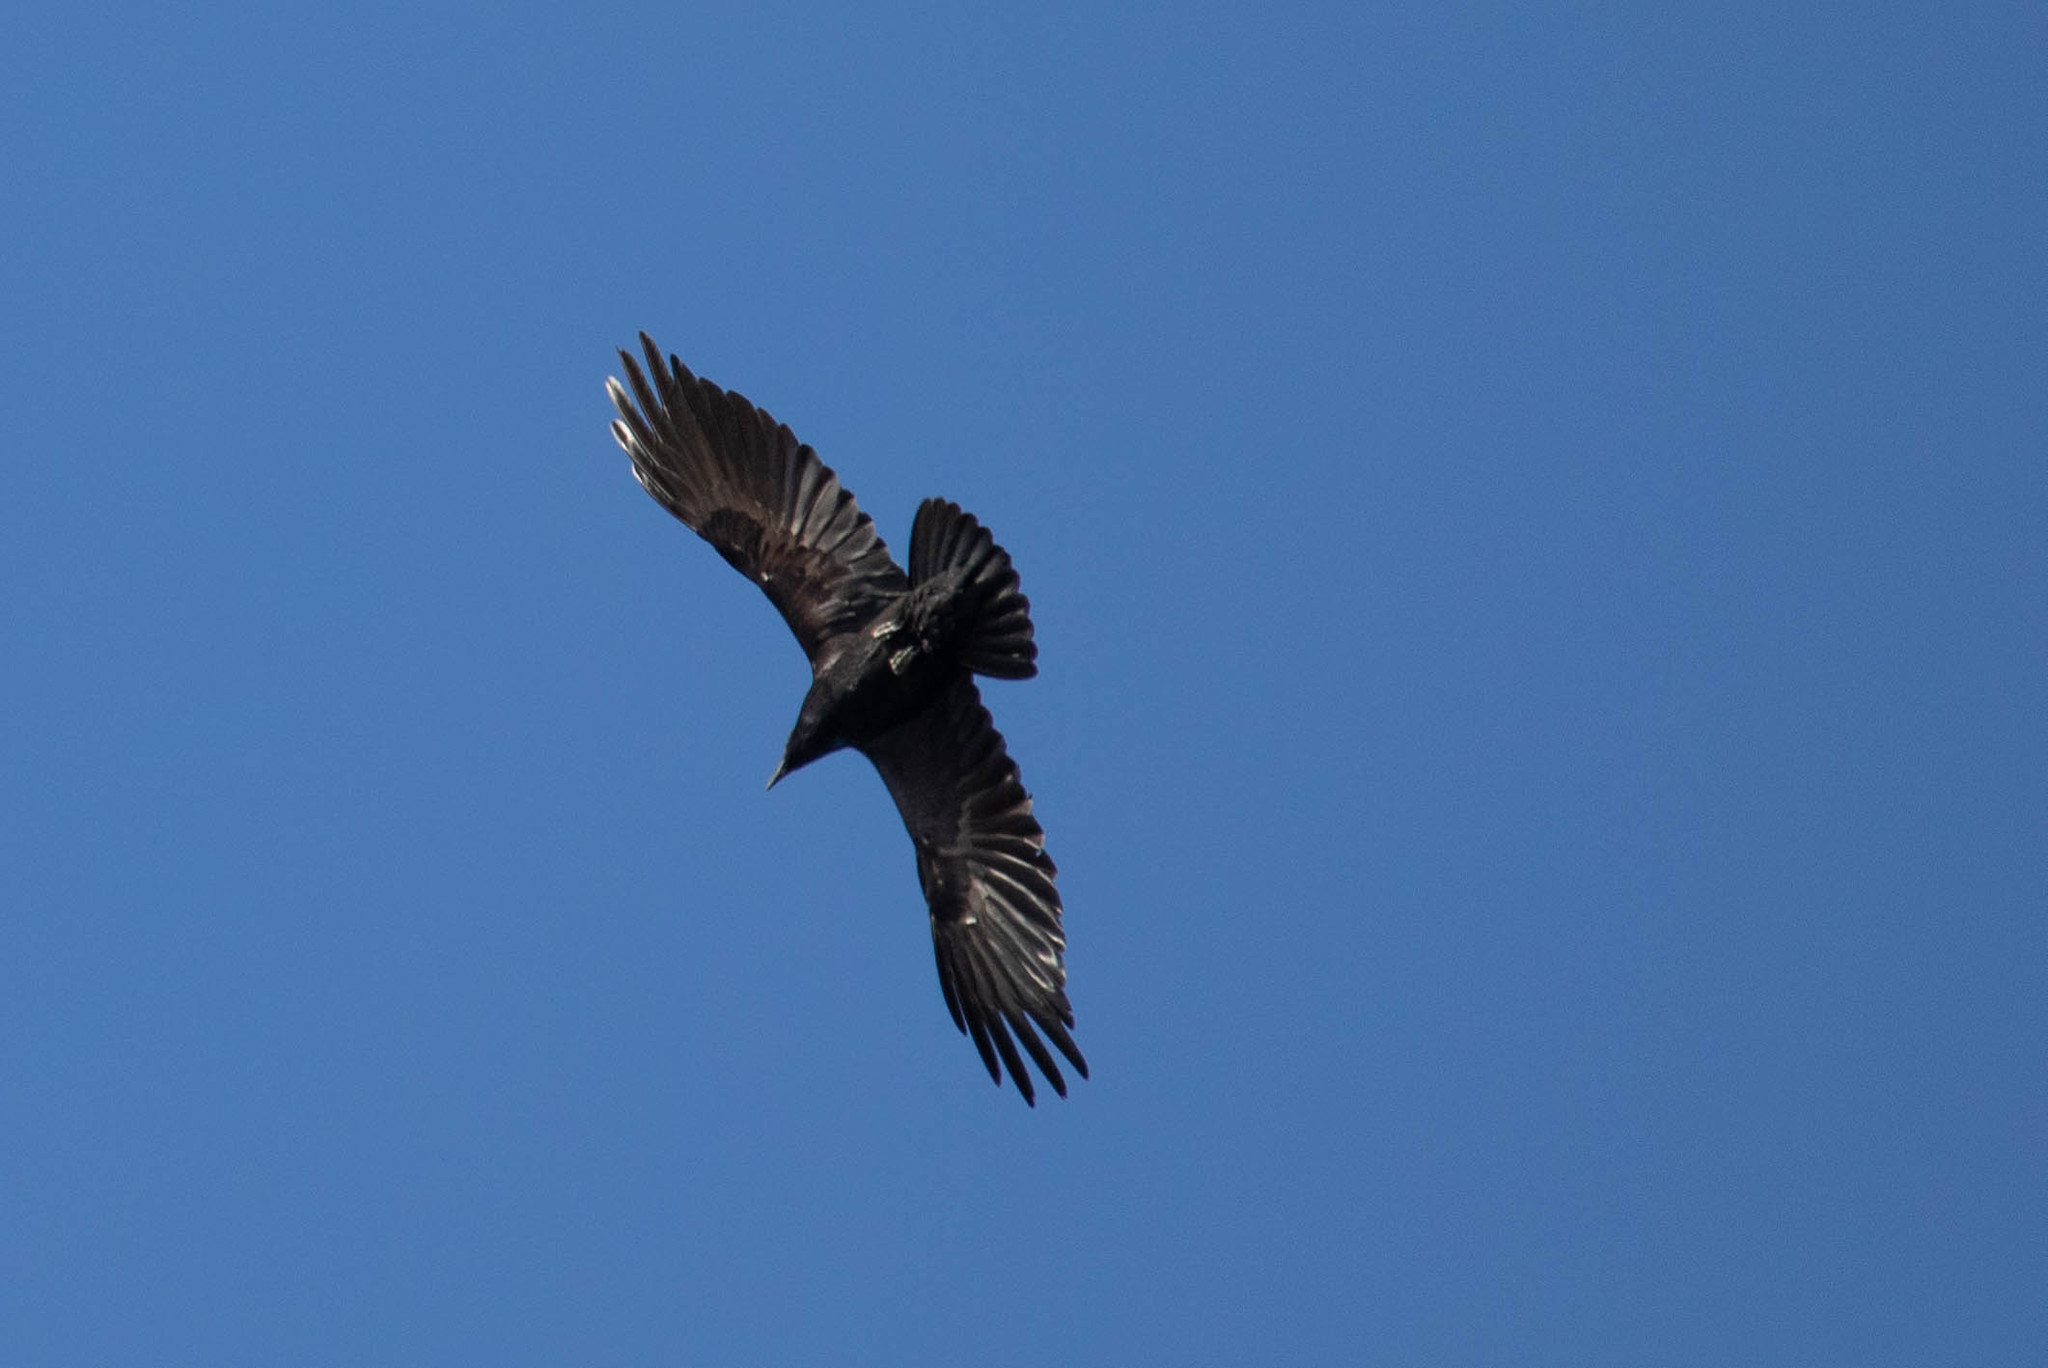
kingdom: Animalia
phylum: Chordata
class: Aves
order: Passeriformes
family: Corvidae
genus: Corvus
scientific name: Corvus brachyrhynchos
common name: American crow
